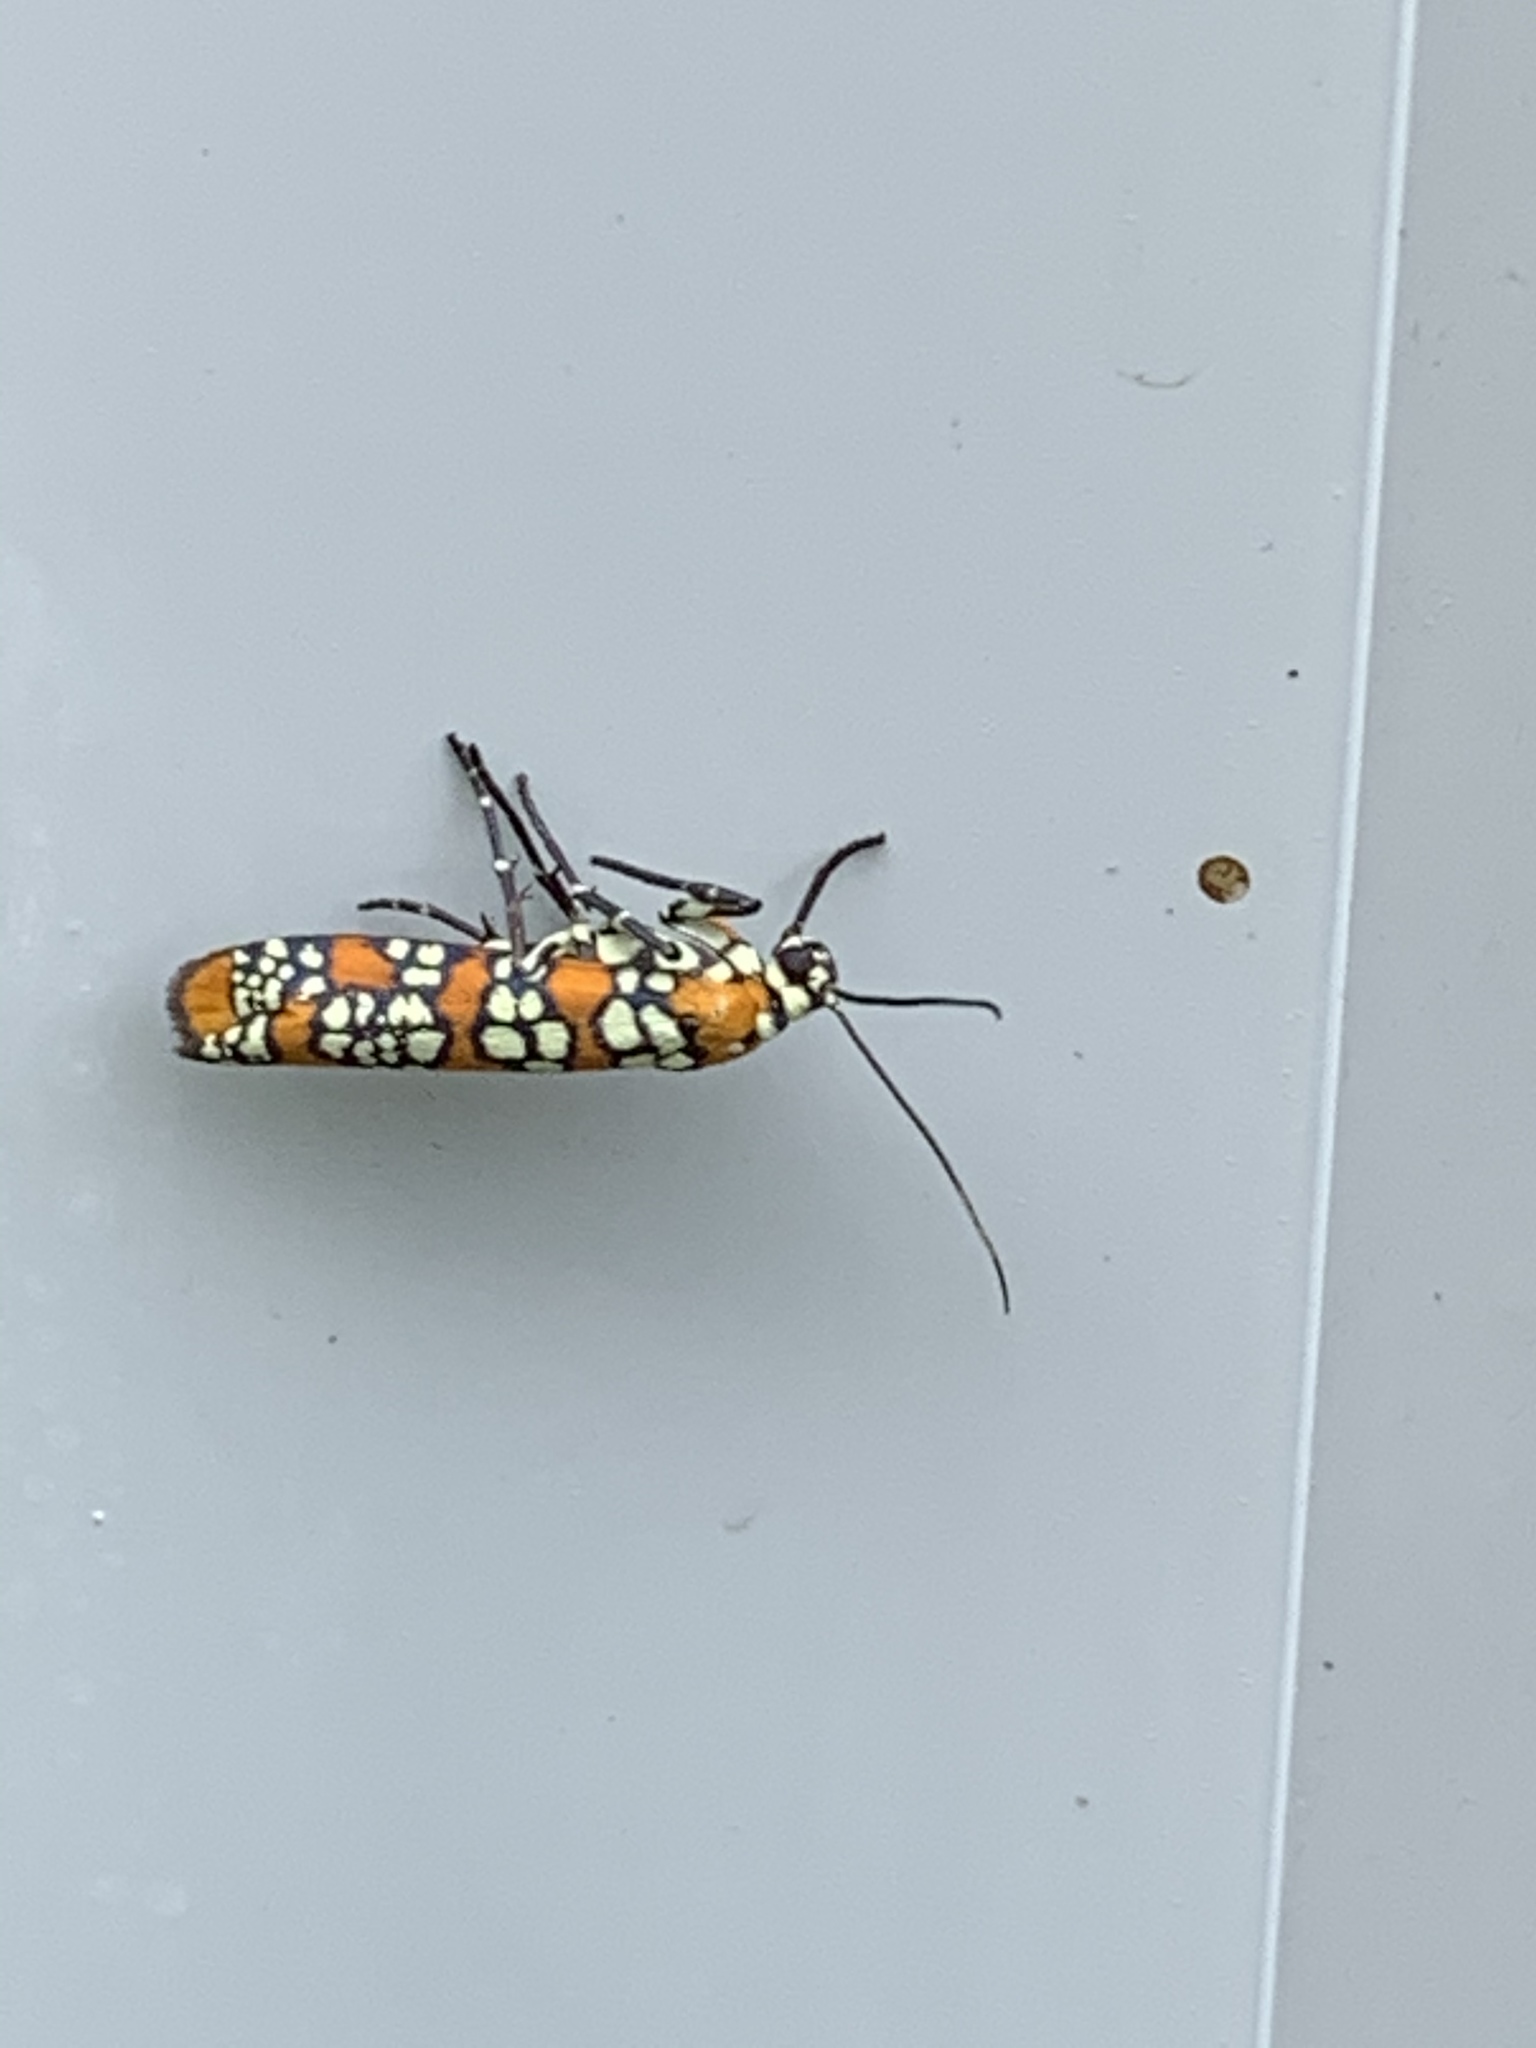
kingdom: Animalia
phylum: Arthropoda
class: Insecta
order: Lepidoptera
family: Attevidae
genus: Atteva
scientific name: Atteva punctella
